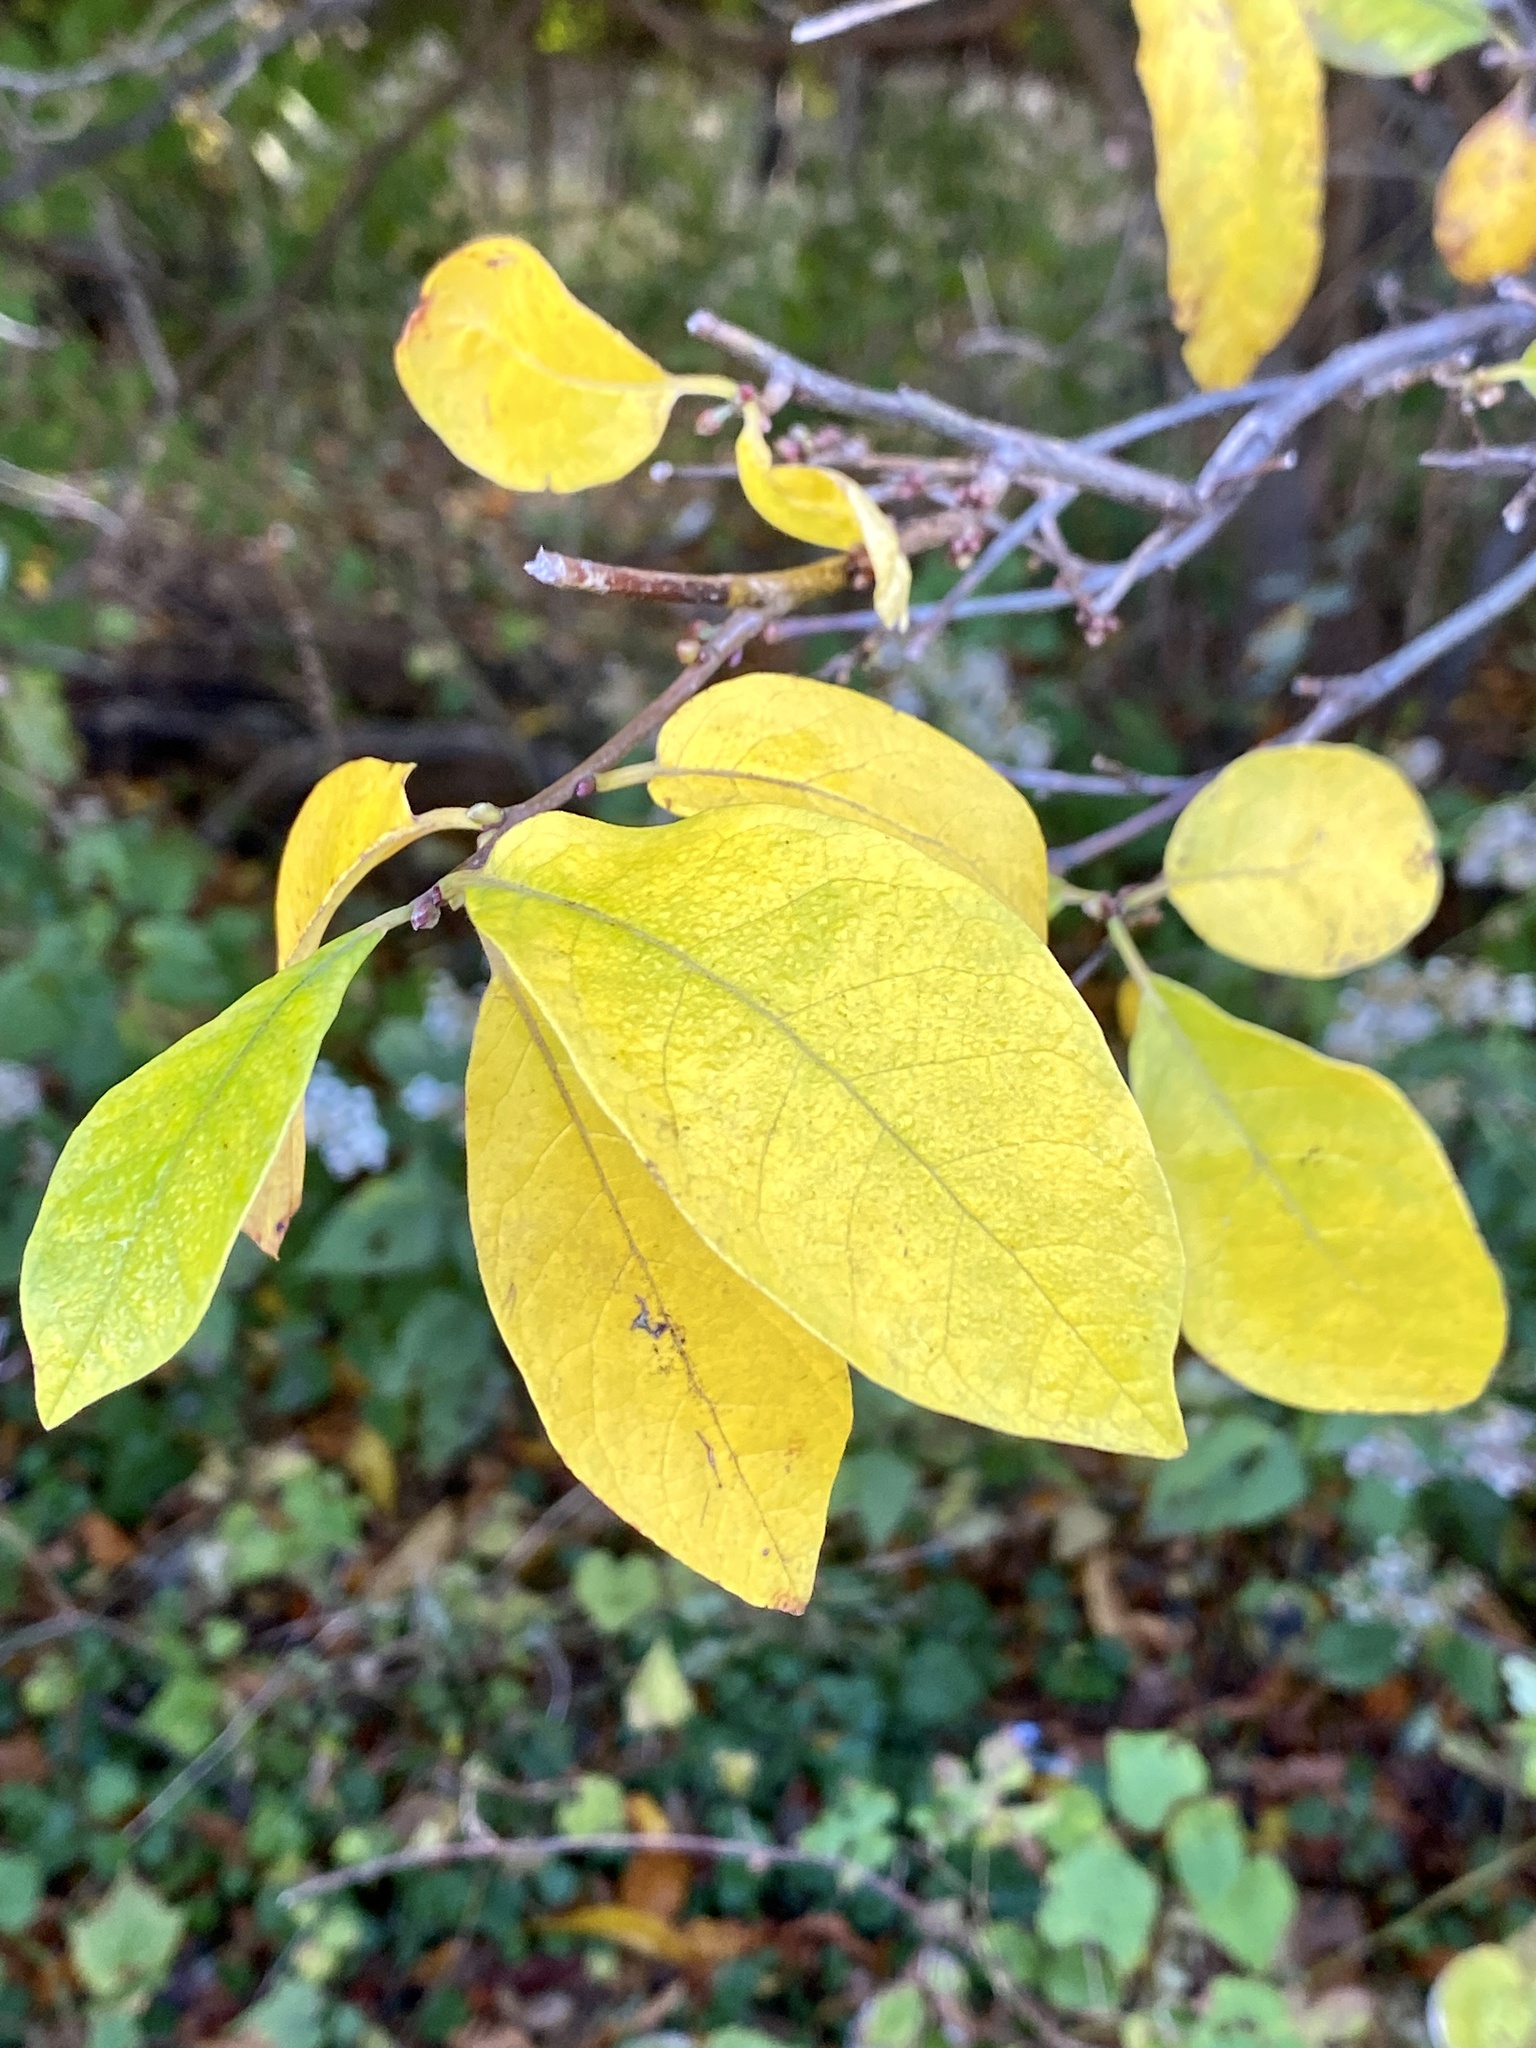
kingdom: Plantae
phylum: Tracheophyta
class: Magnoliopsida
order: Laurales
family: Lauraceae
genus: Lindera
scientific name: Lindera benzoin
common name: Spicebush
